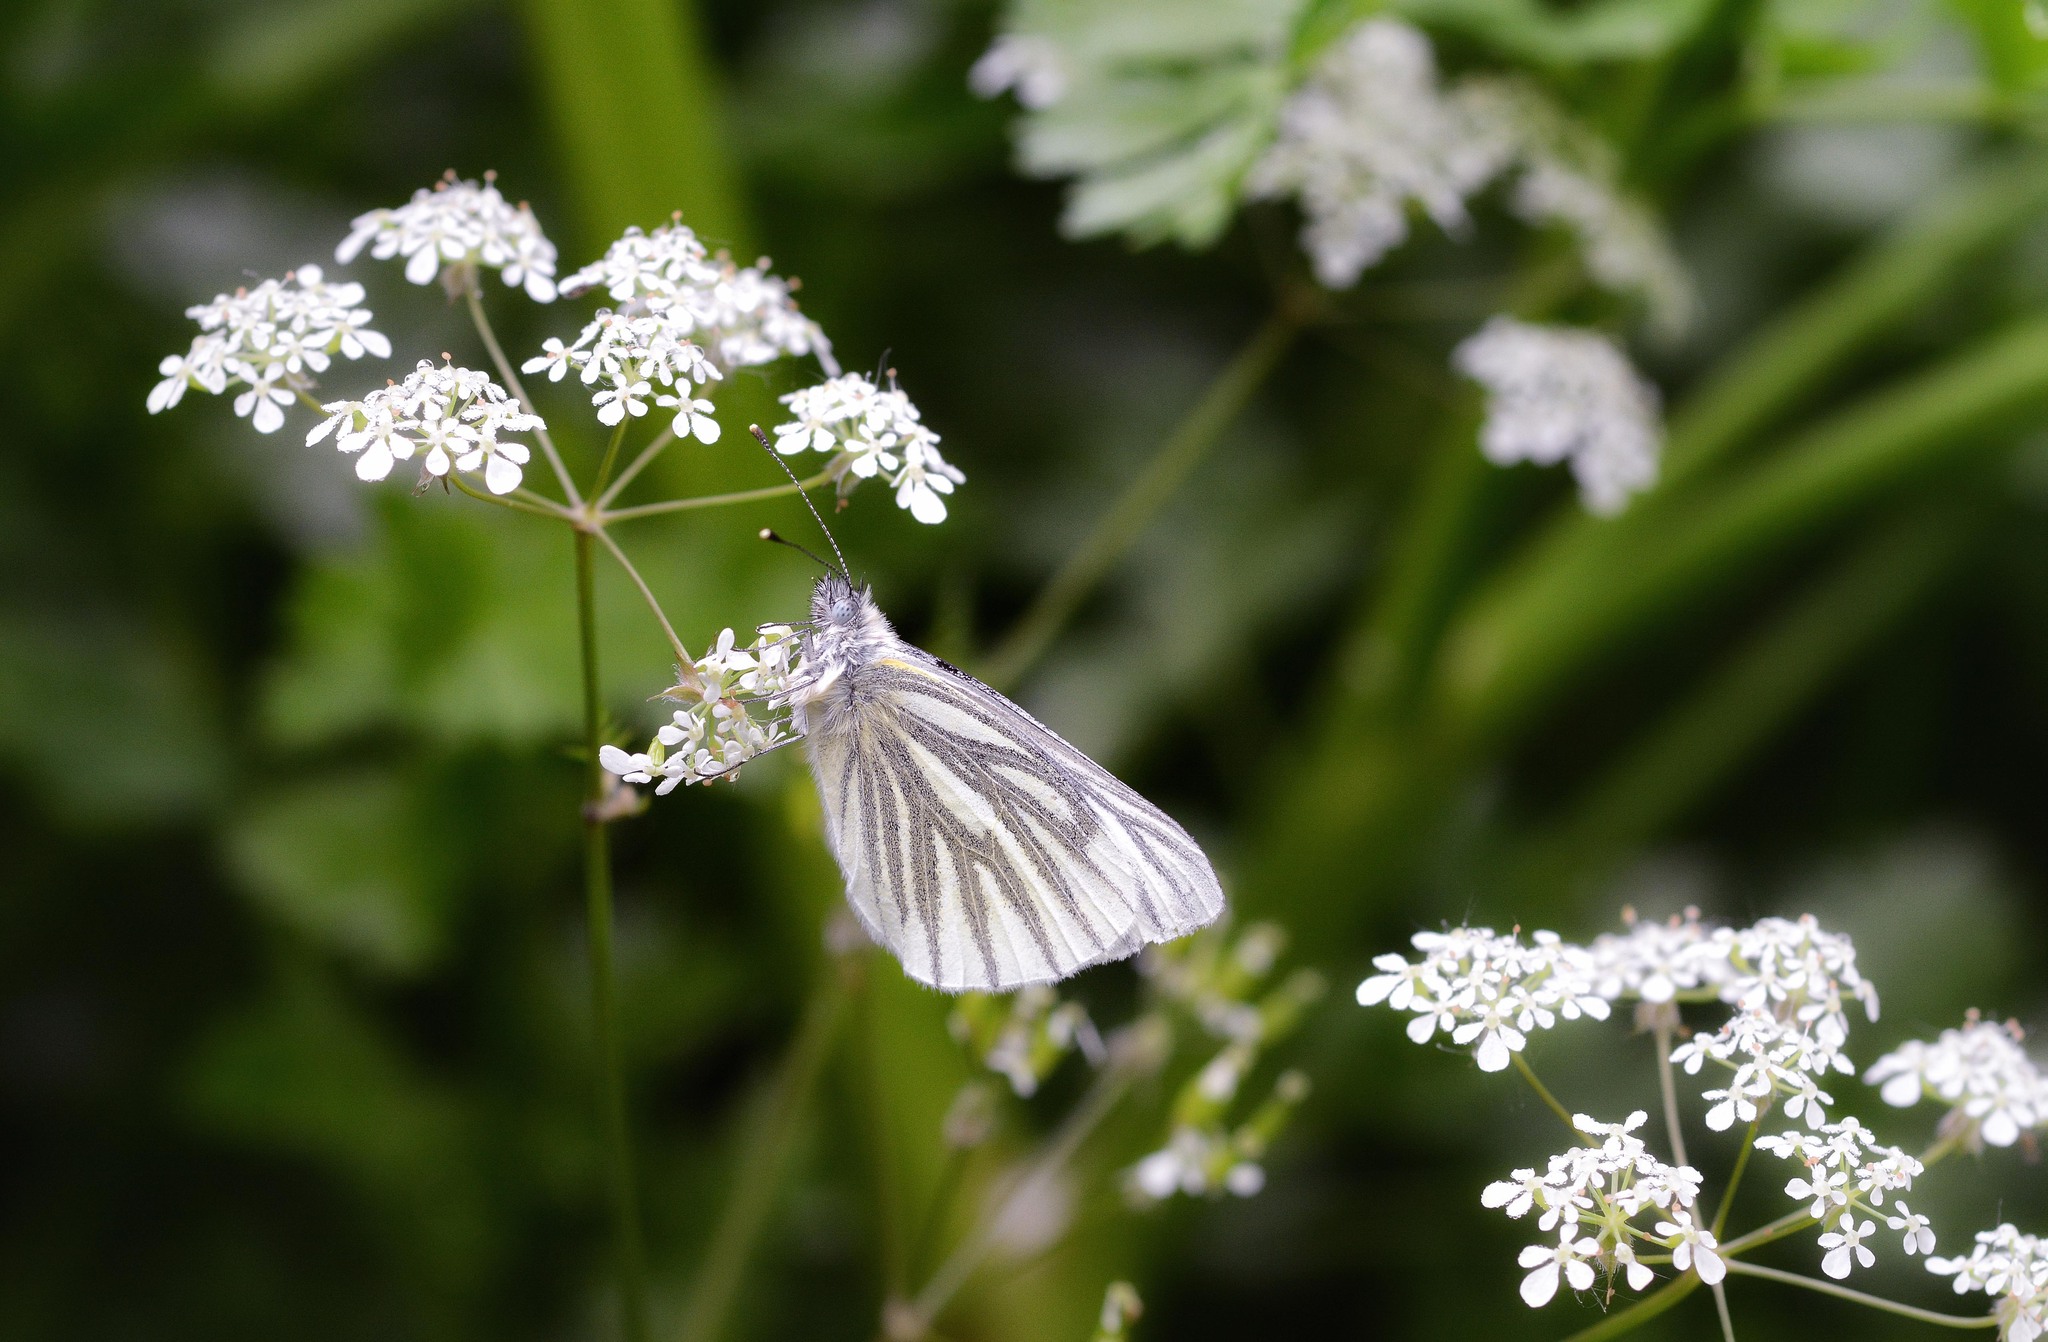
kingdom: Animalia
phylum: Arthropoda
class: Insecta
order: Lepidoptera
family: Pieridae
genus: Pieris
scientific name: Pieris napi
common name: Green-veined white
